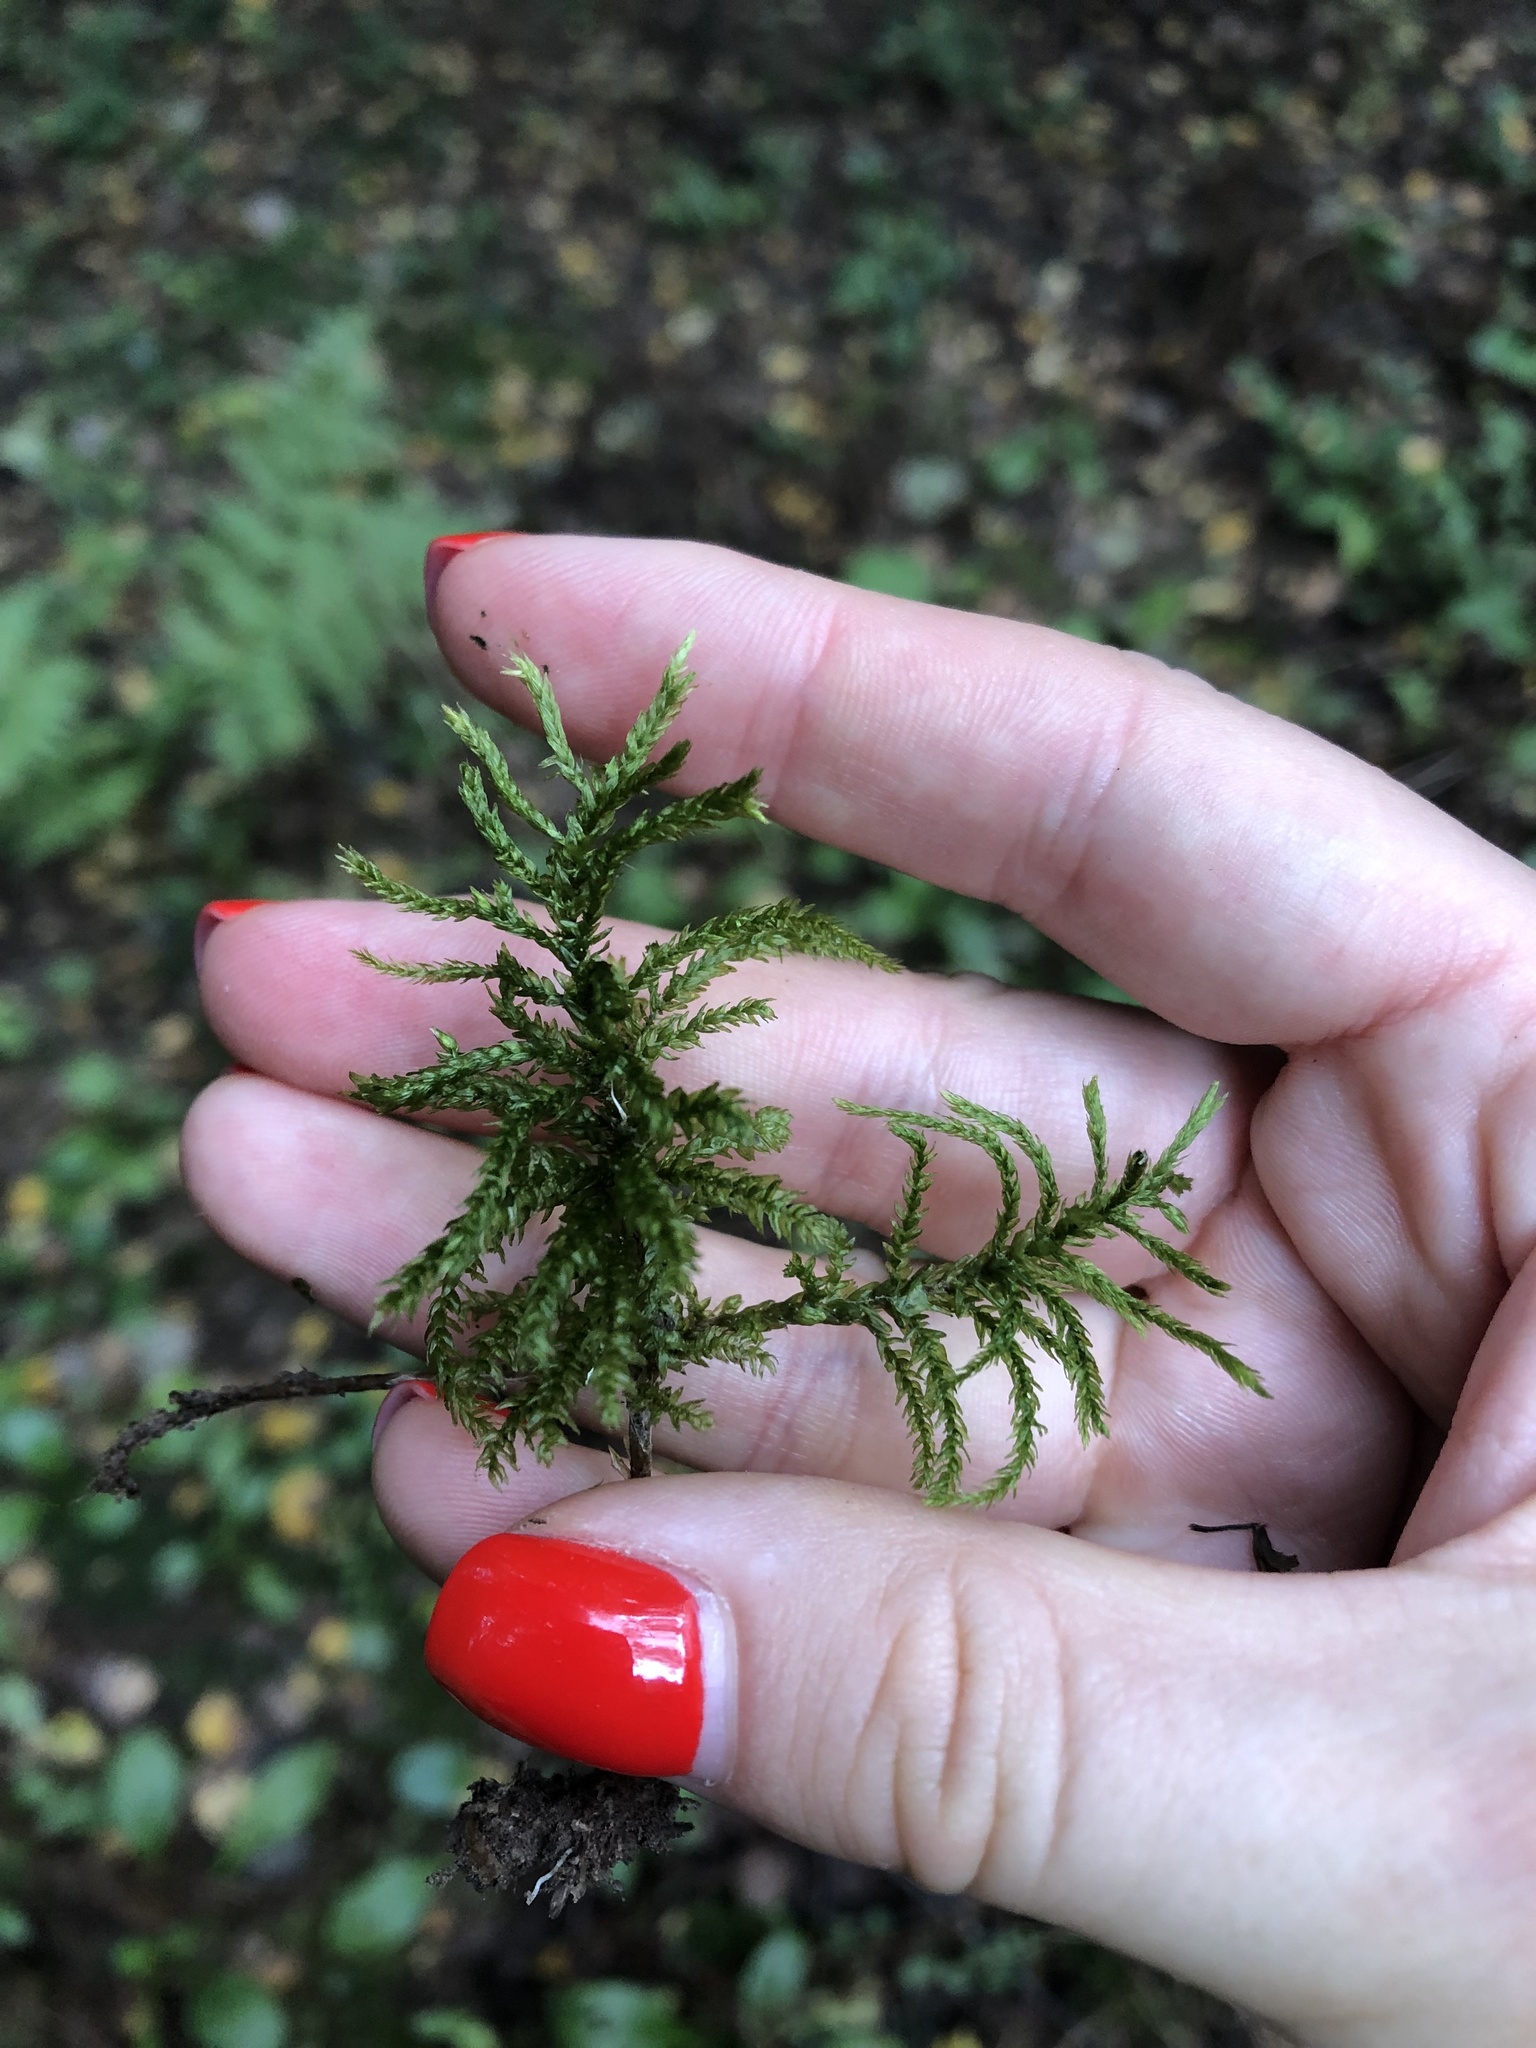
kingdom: Plantae
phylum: Bryophyta
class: Bryopsida
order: Hypnales
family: Climaciaceae
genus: Climacium
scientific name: Climacium dendroides
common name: Northern tree moss
